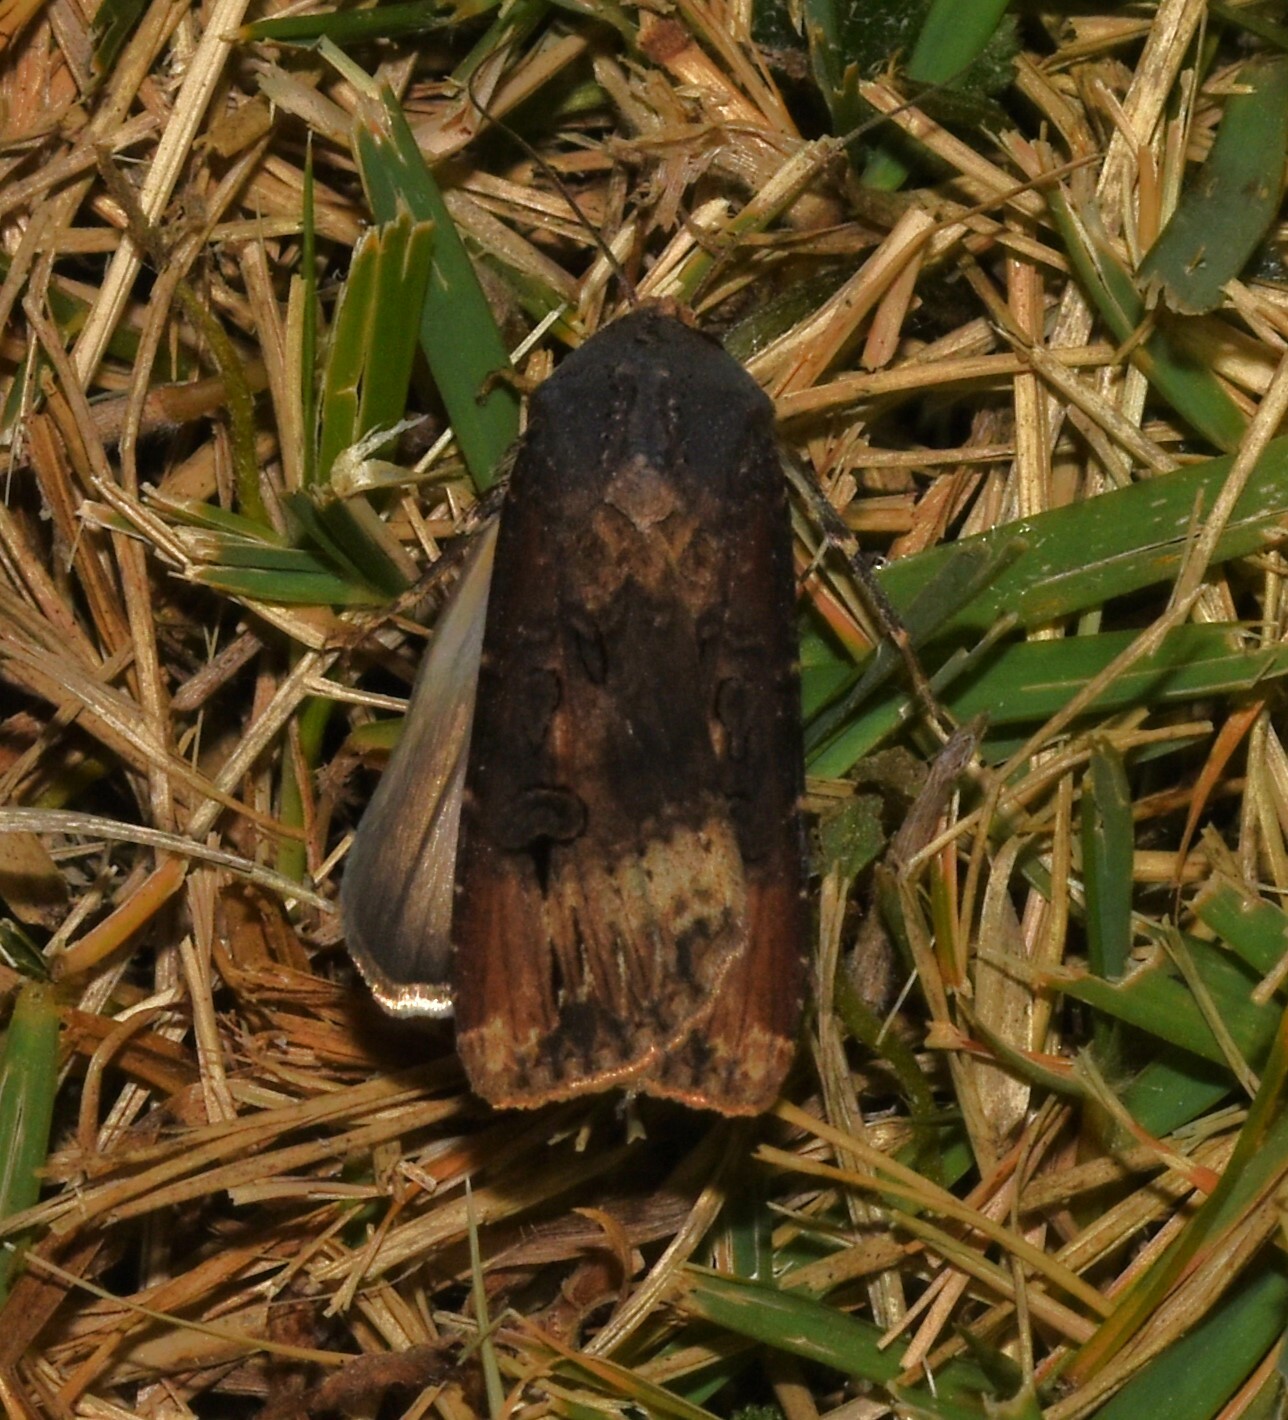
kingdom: Animalia
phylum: Arthropoda
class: Insecta
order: Lepidoptera
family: Noctuidae
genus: Agrotis
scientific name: Agrotis ipsilon
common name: Dark sword-grass
